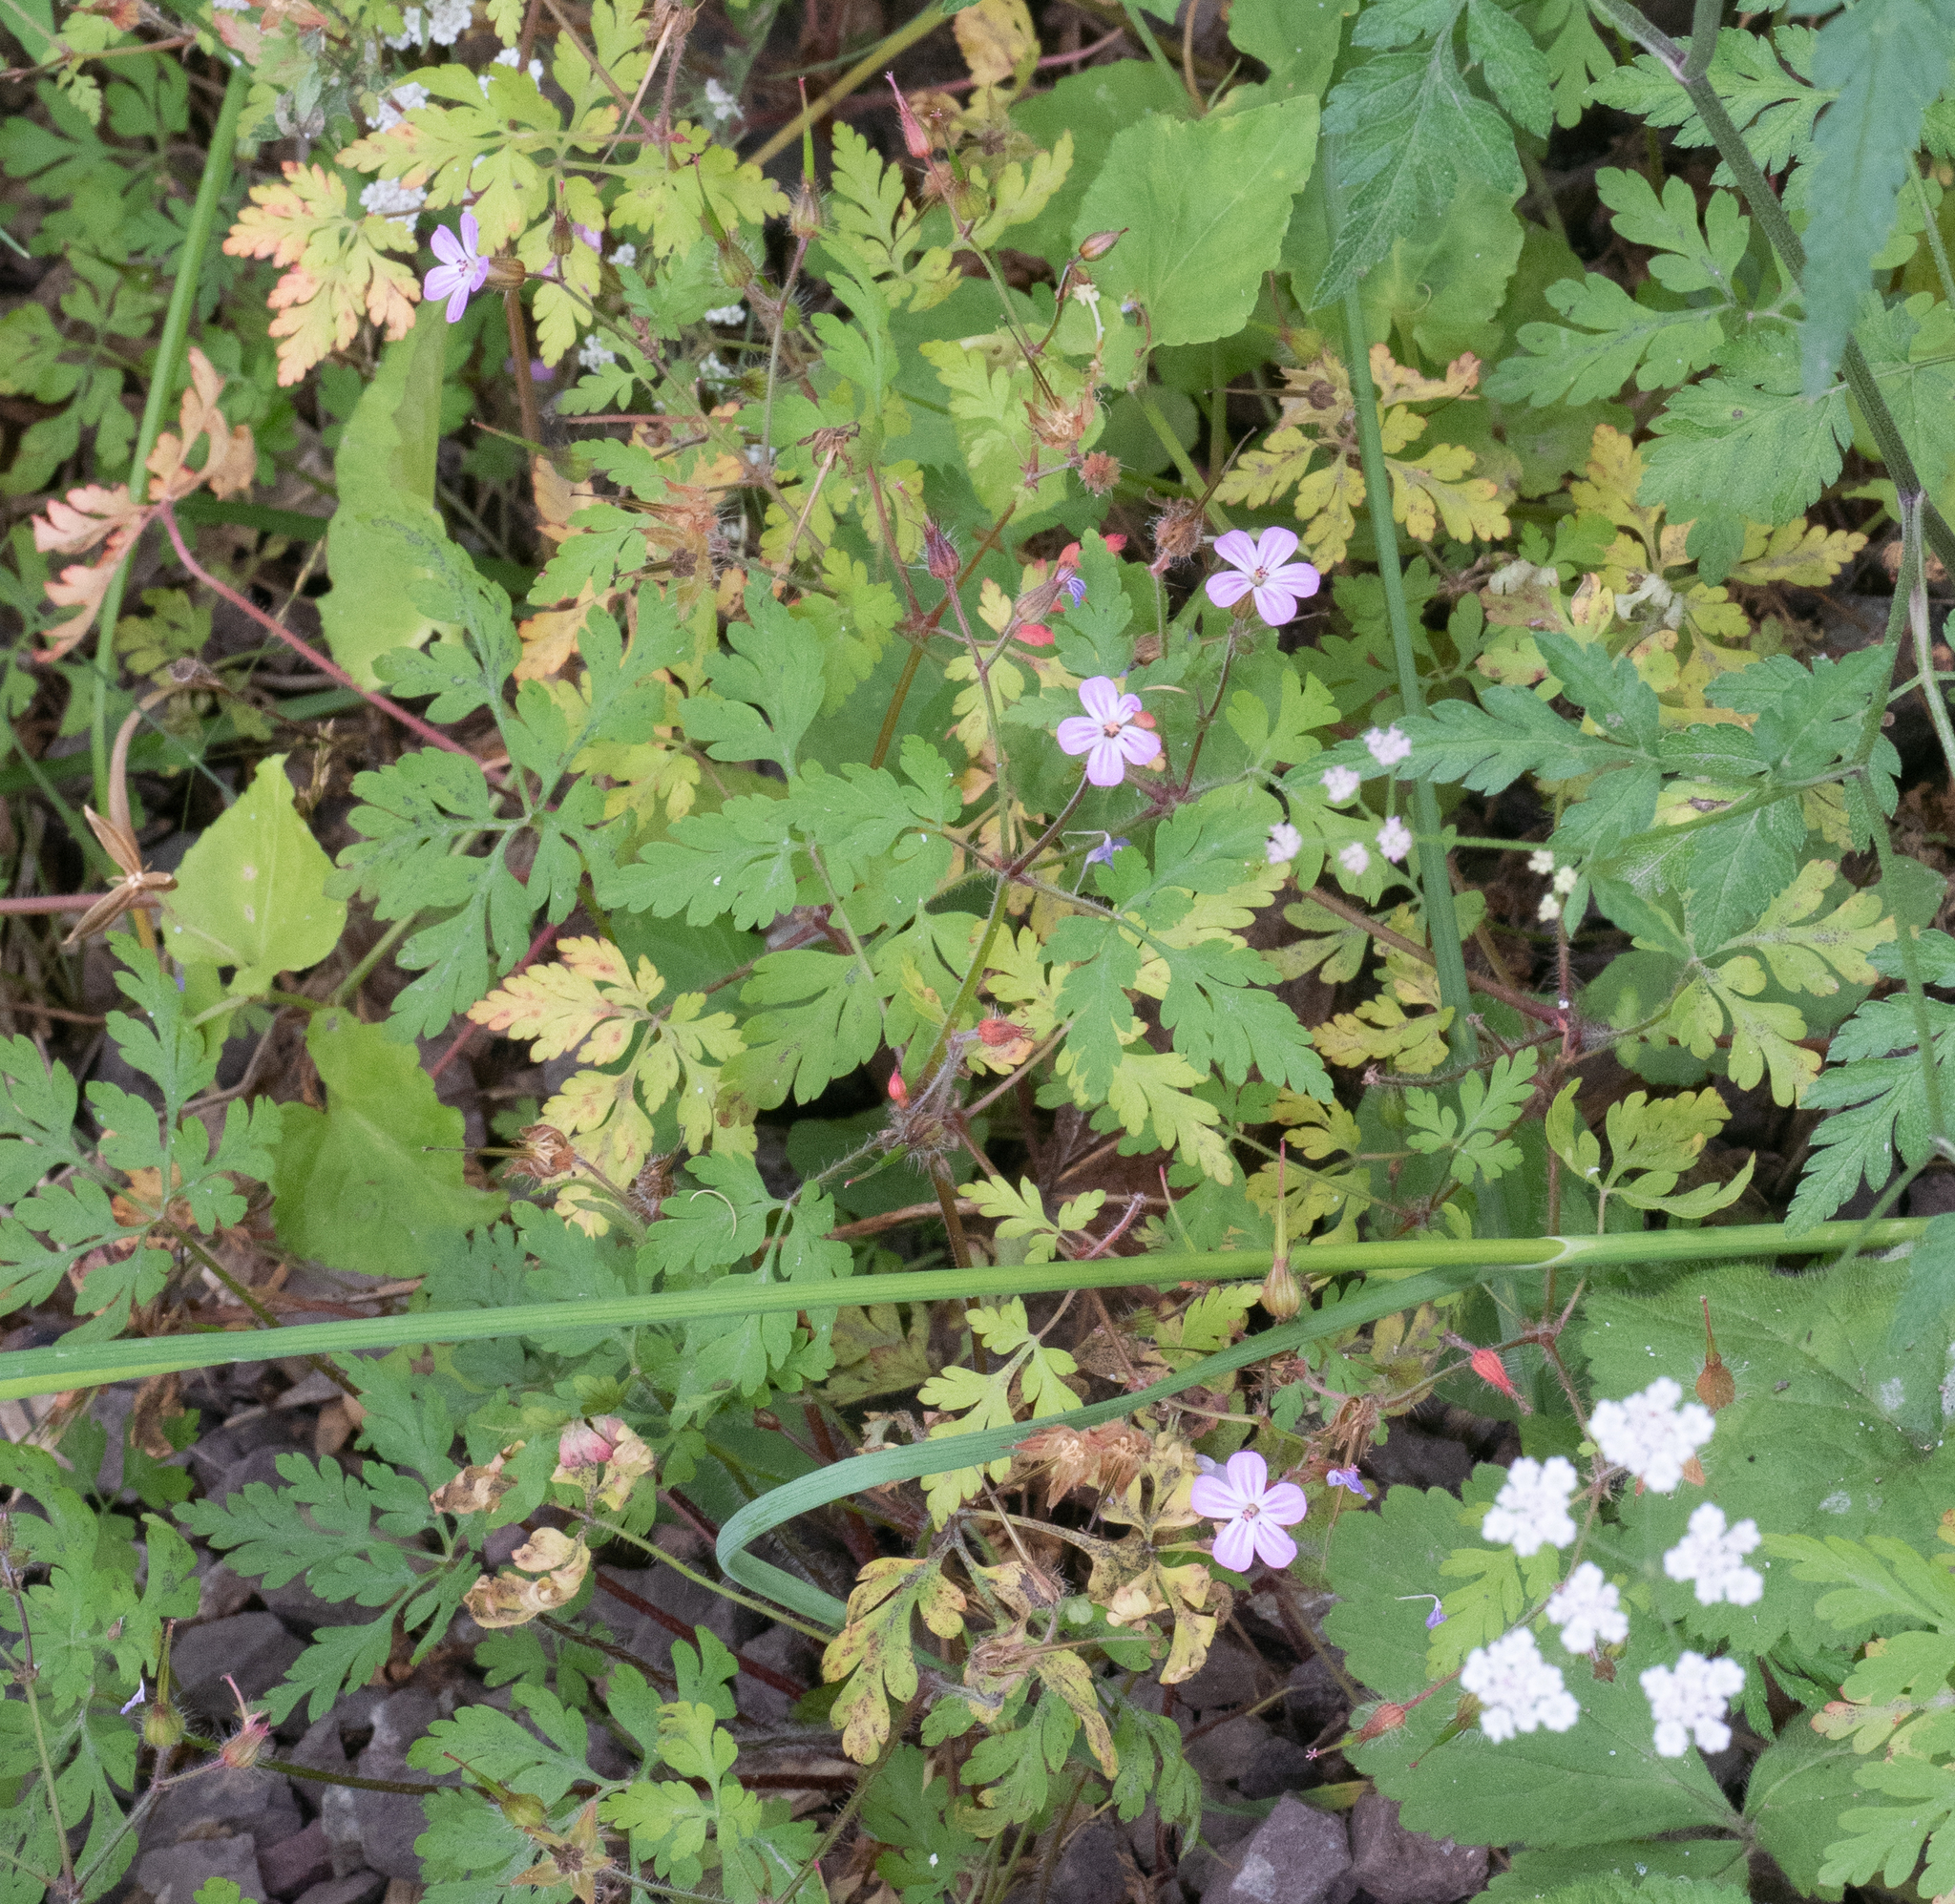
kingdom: Plantae
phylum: Tracheophyta
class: Magnoliopsida
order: Geraniales
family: Geraniaceae
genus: Geranium
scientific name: Geranium robertianum
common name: Herb-robert
